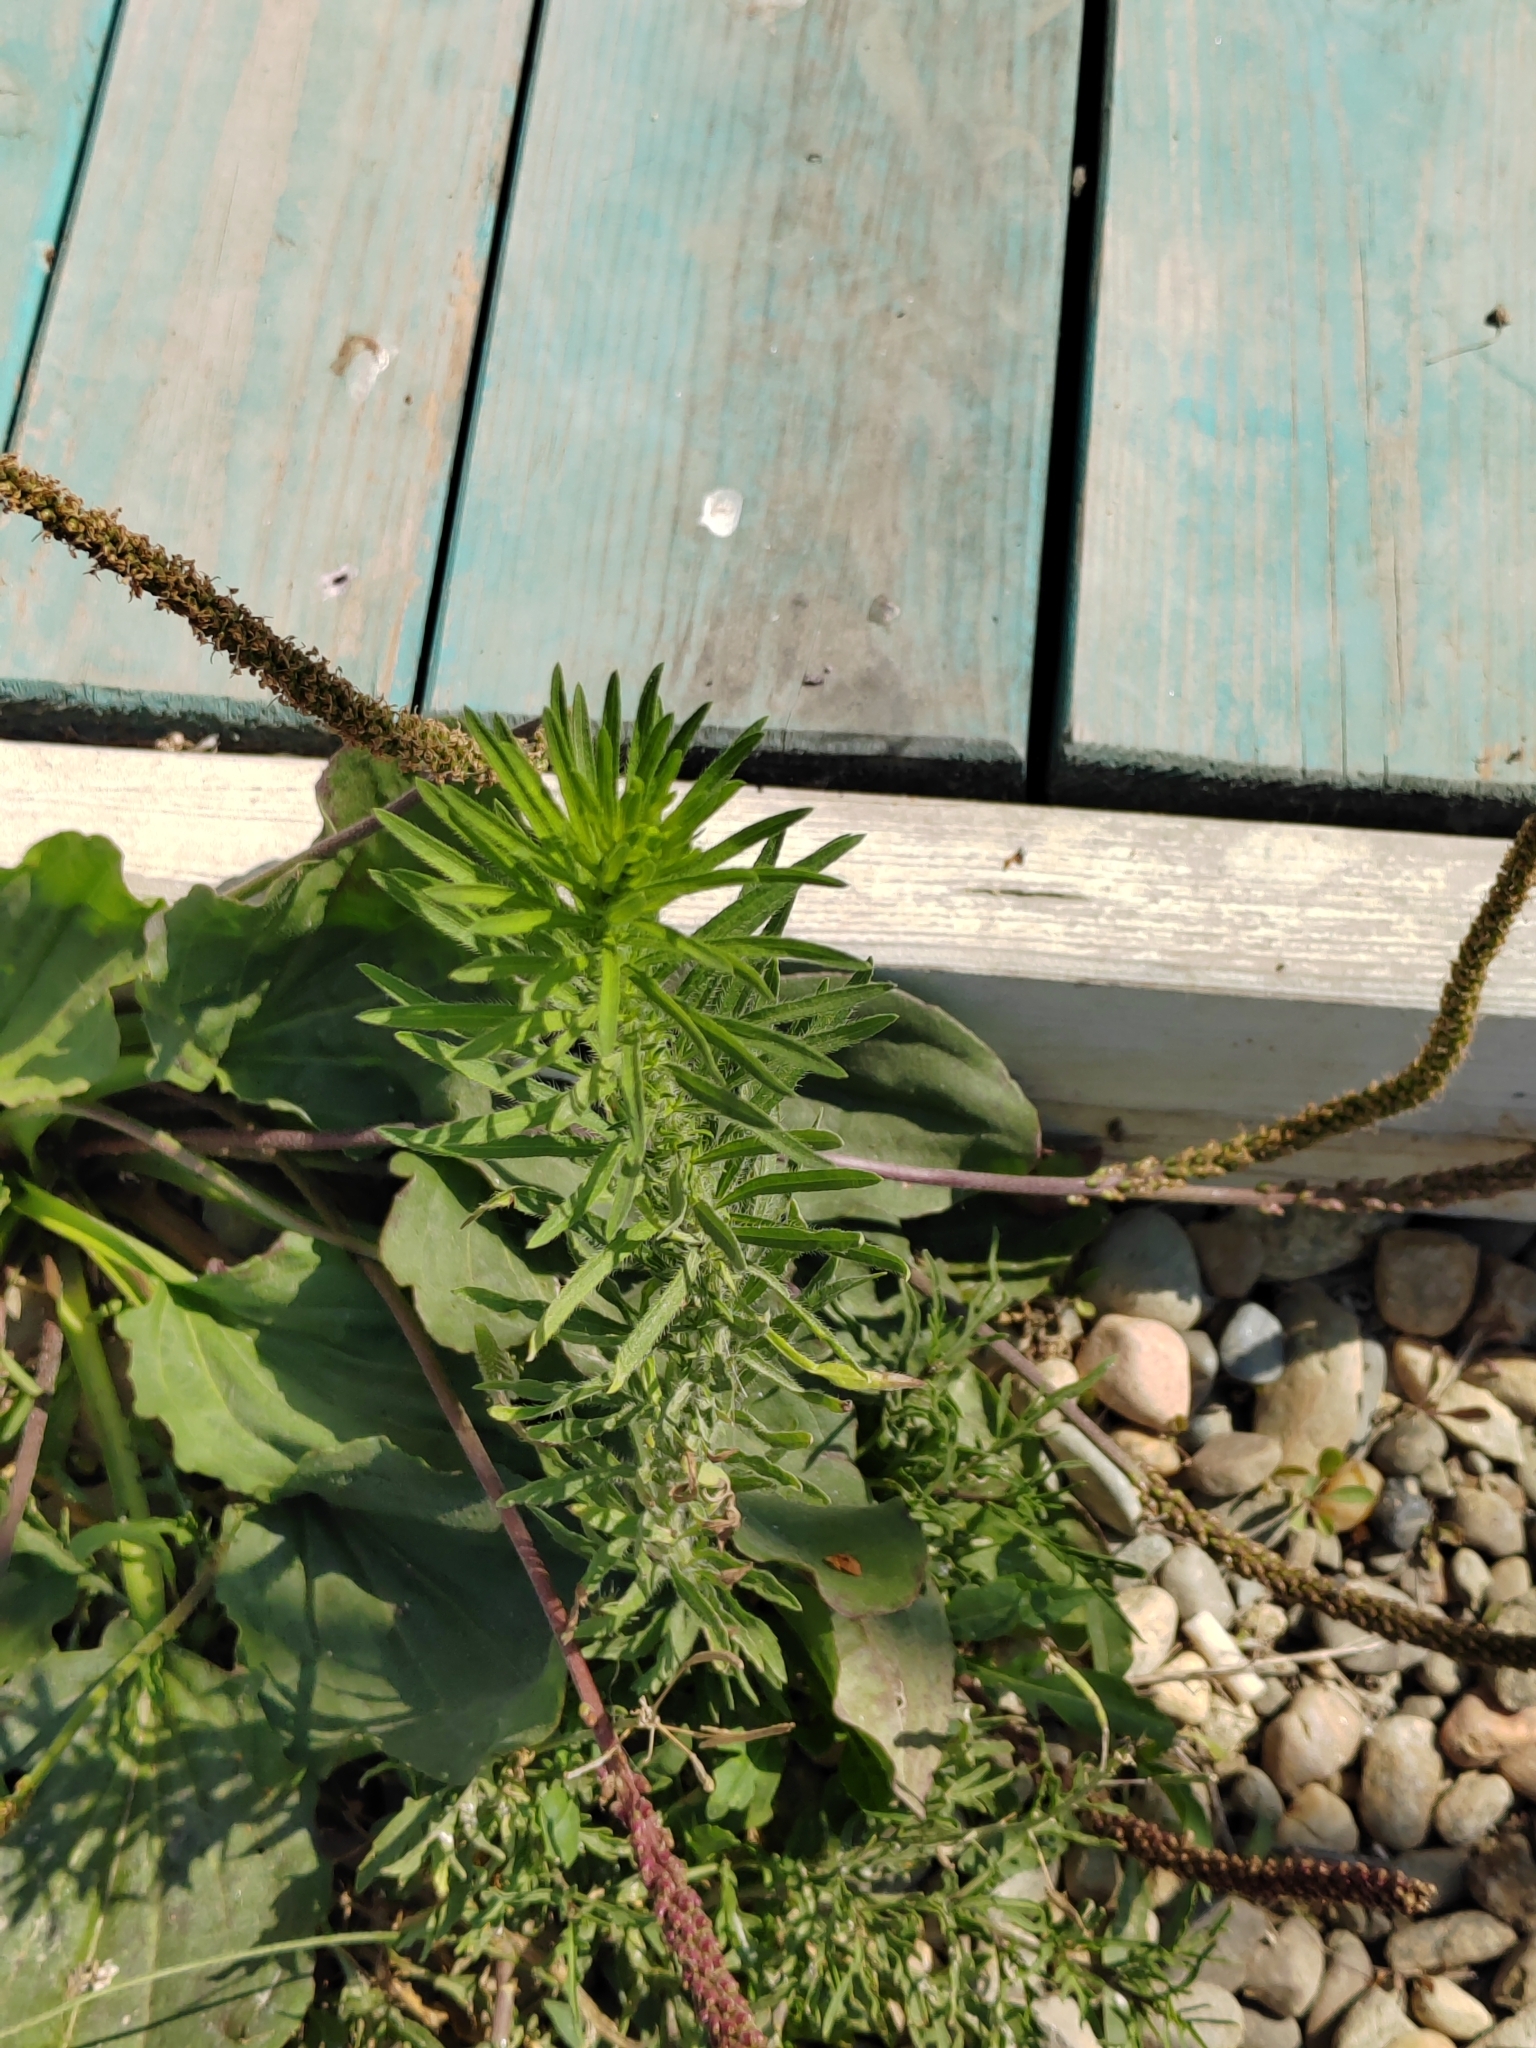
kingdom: Plantae
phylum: Tracheophyta
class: Magnoliopsida
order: Asterales
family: Asteraceae
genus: Erigeron
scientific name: Erigeron canadensis
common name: Canadian fleabane
